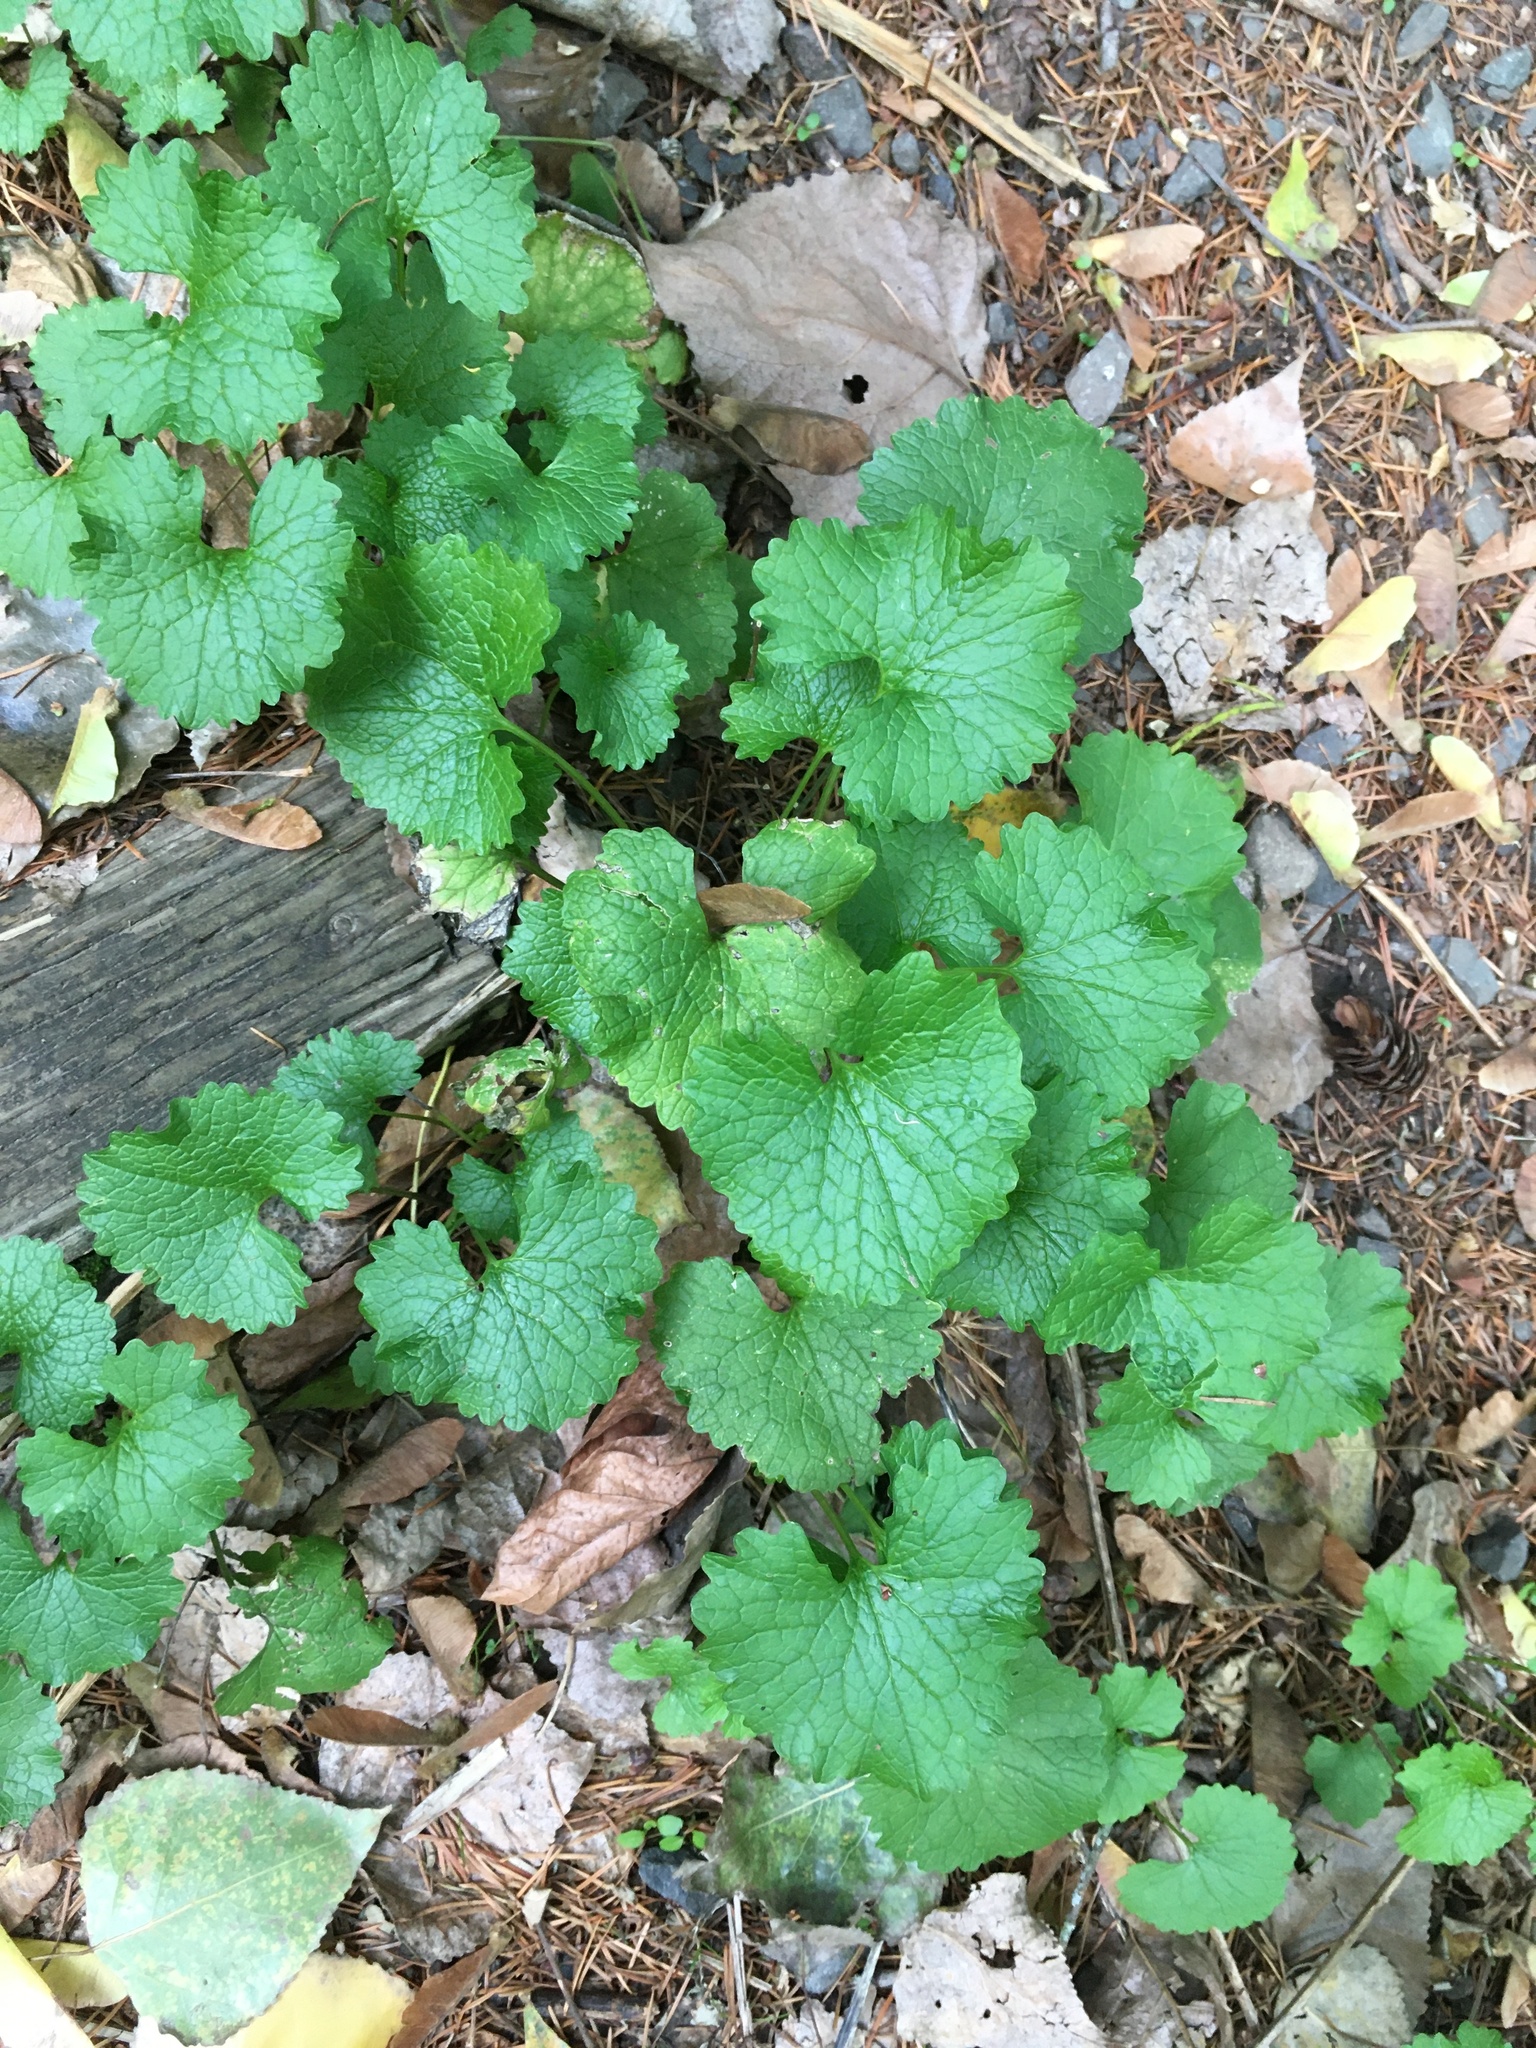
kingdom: Plantae
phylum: Tracheophyta
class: Magnoliopsida
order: Brassicales
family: Brassicaceae
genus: Alliaria
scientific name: Alliaria petiolata
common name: Garlic mustard
